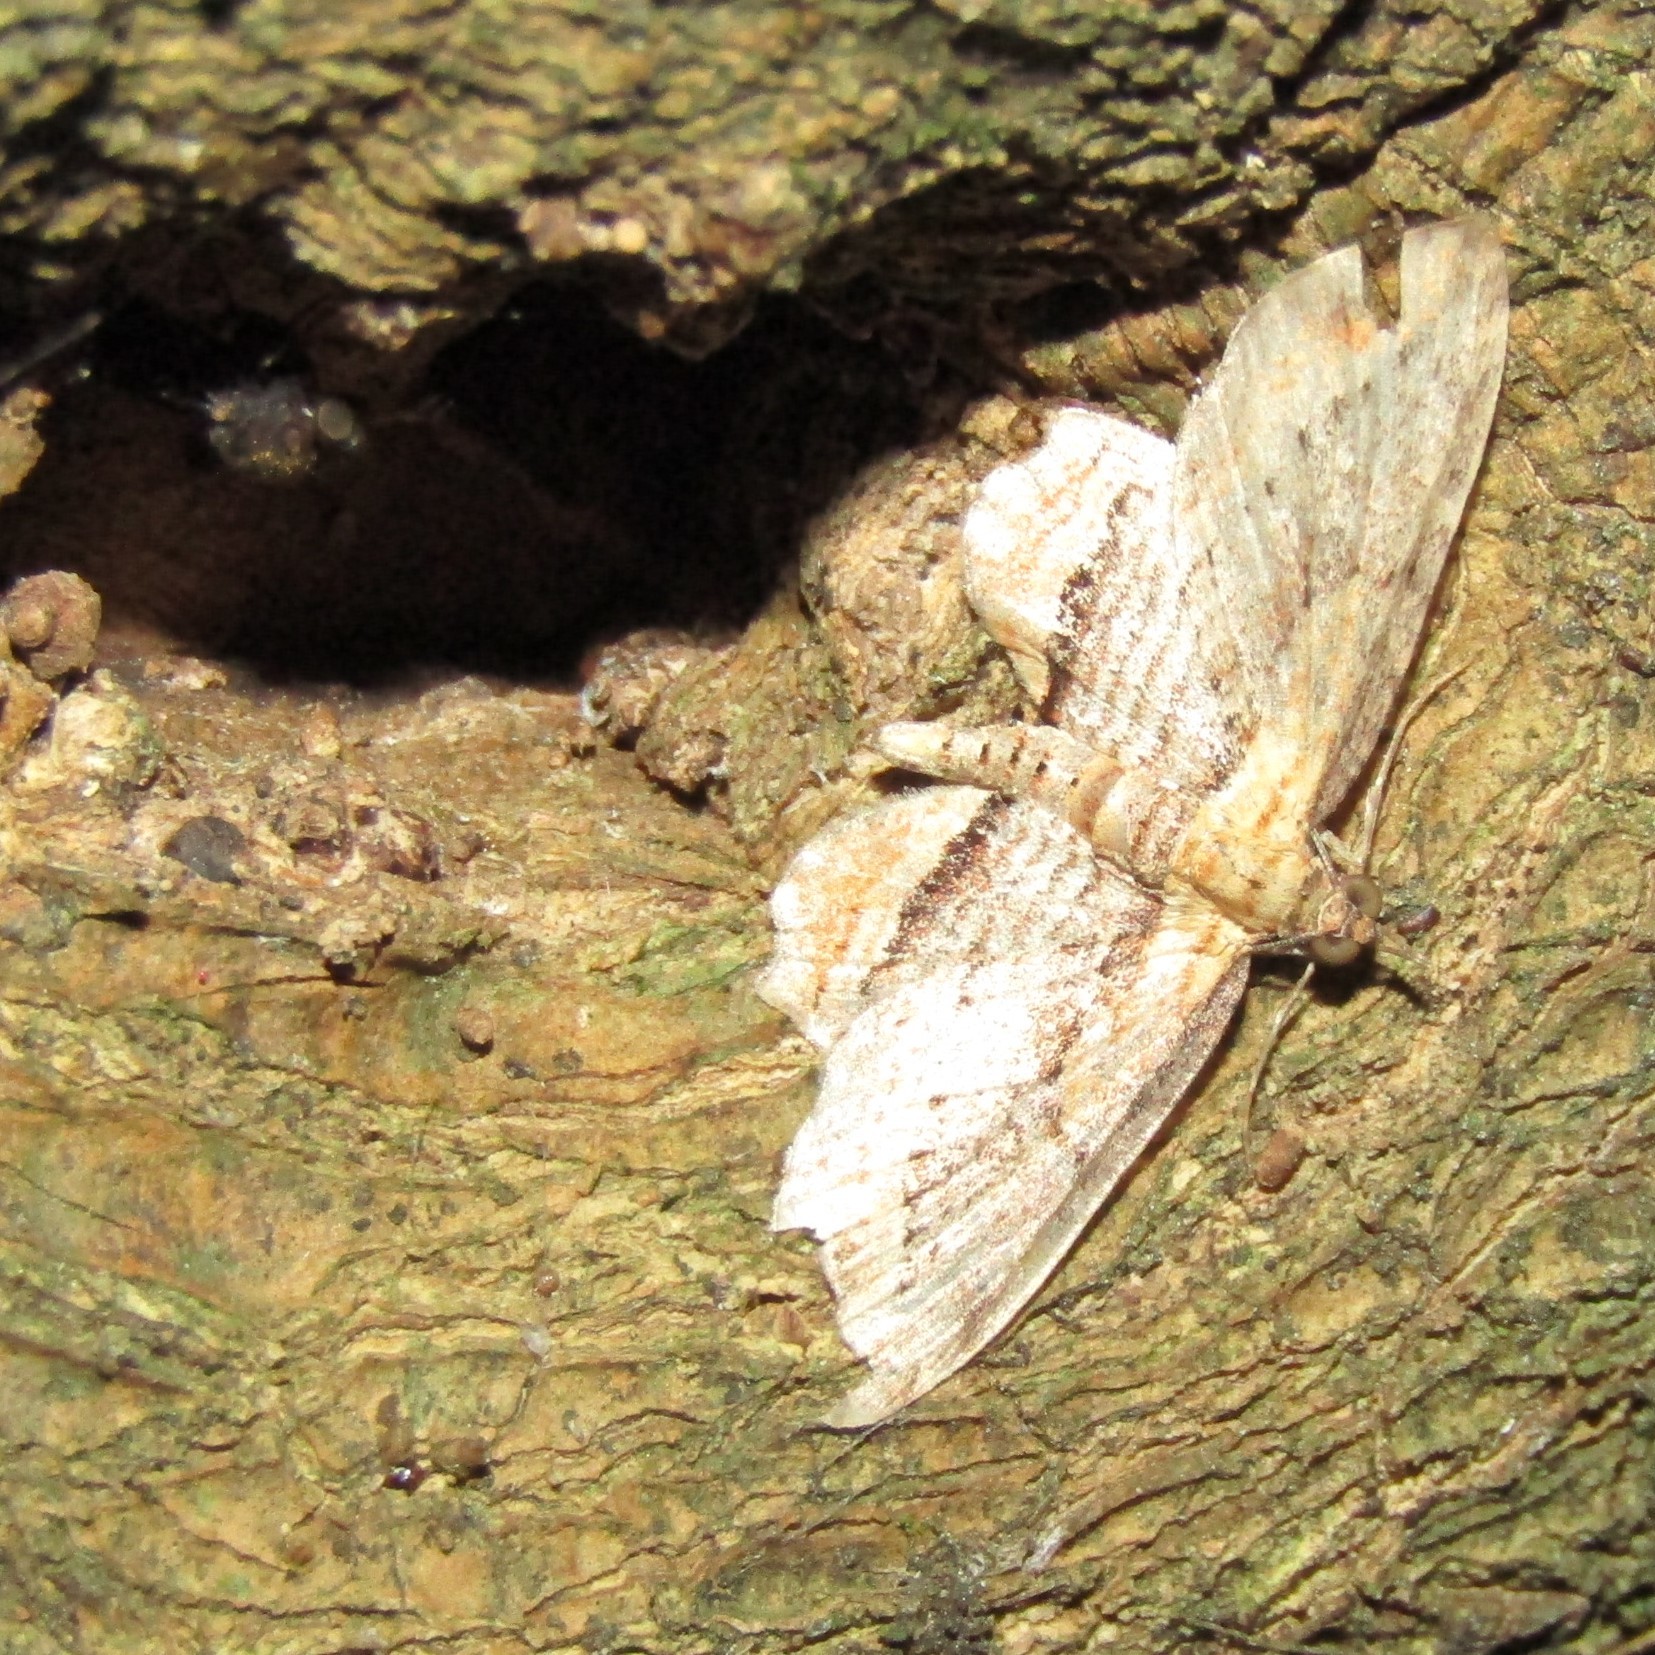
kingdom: Animalia
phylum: Arthropoda
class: Insecta
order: Lepidoptera
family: Geometridae
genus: Chloroclystis
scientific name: Chloroclystis filata
